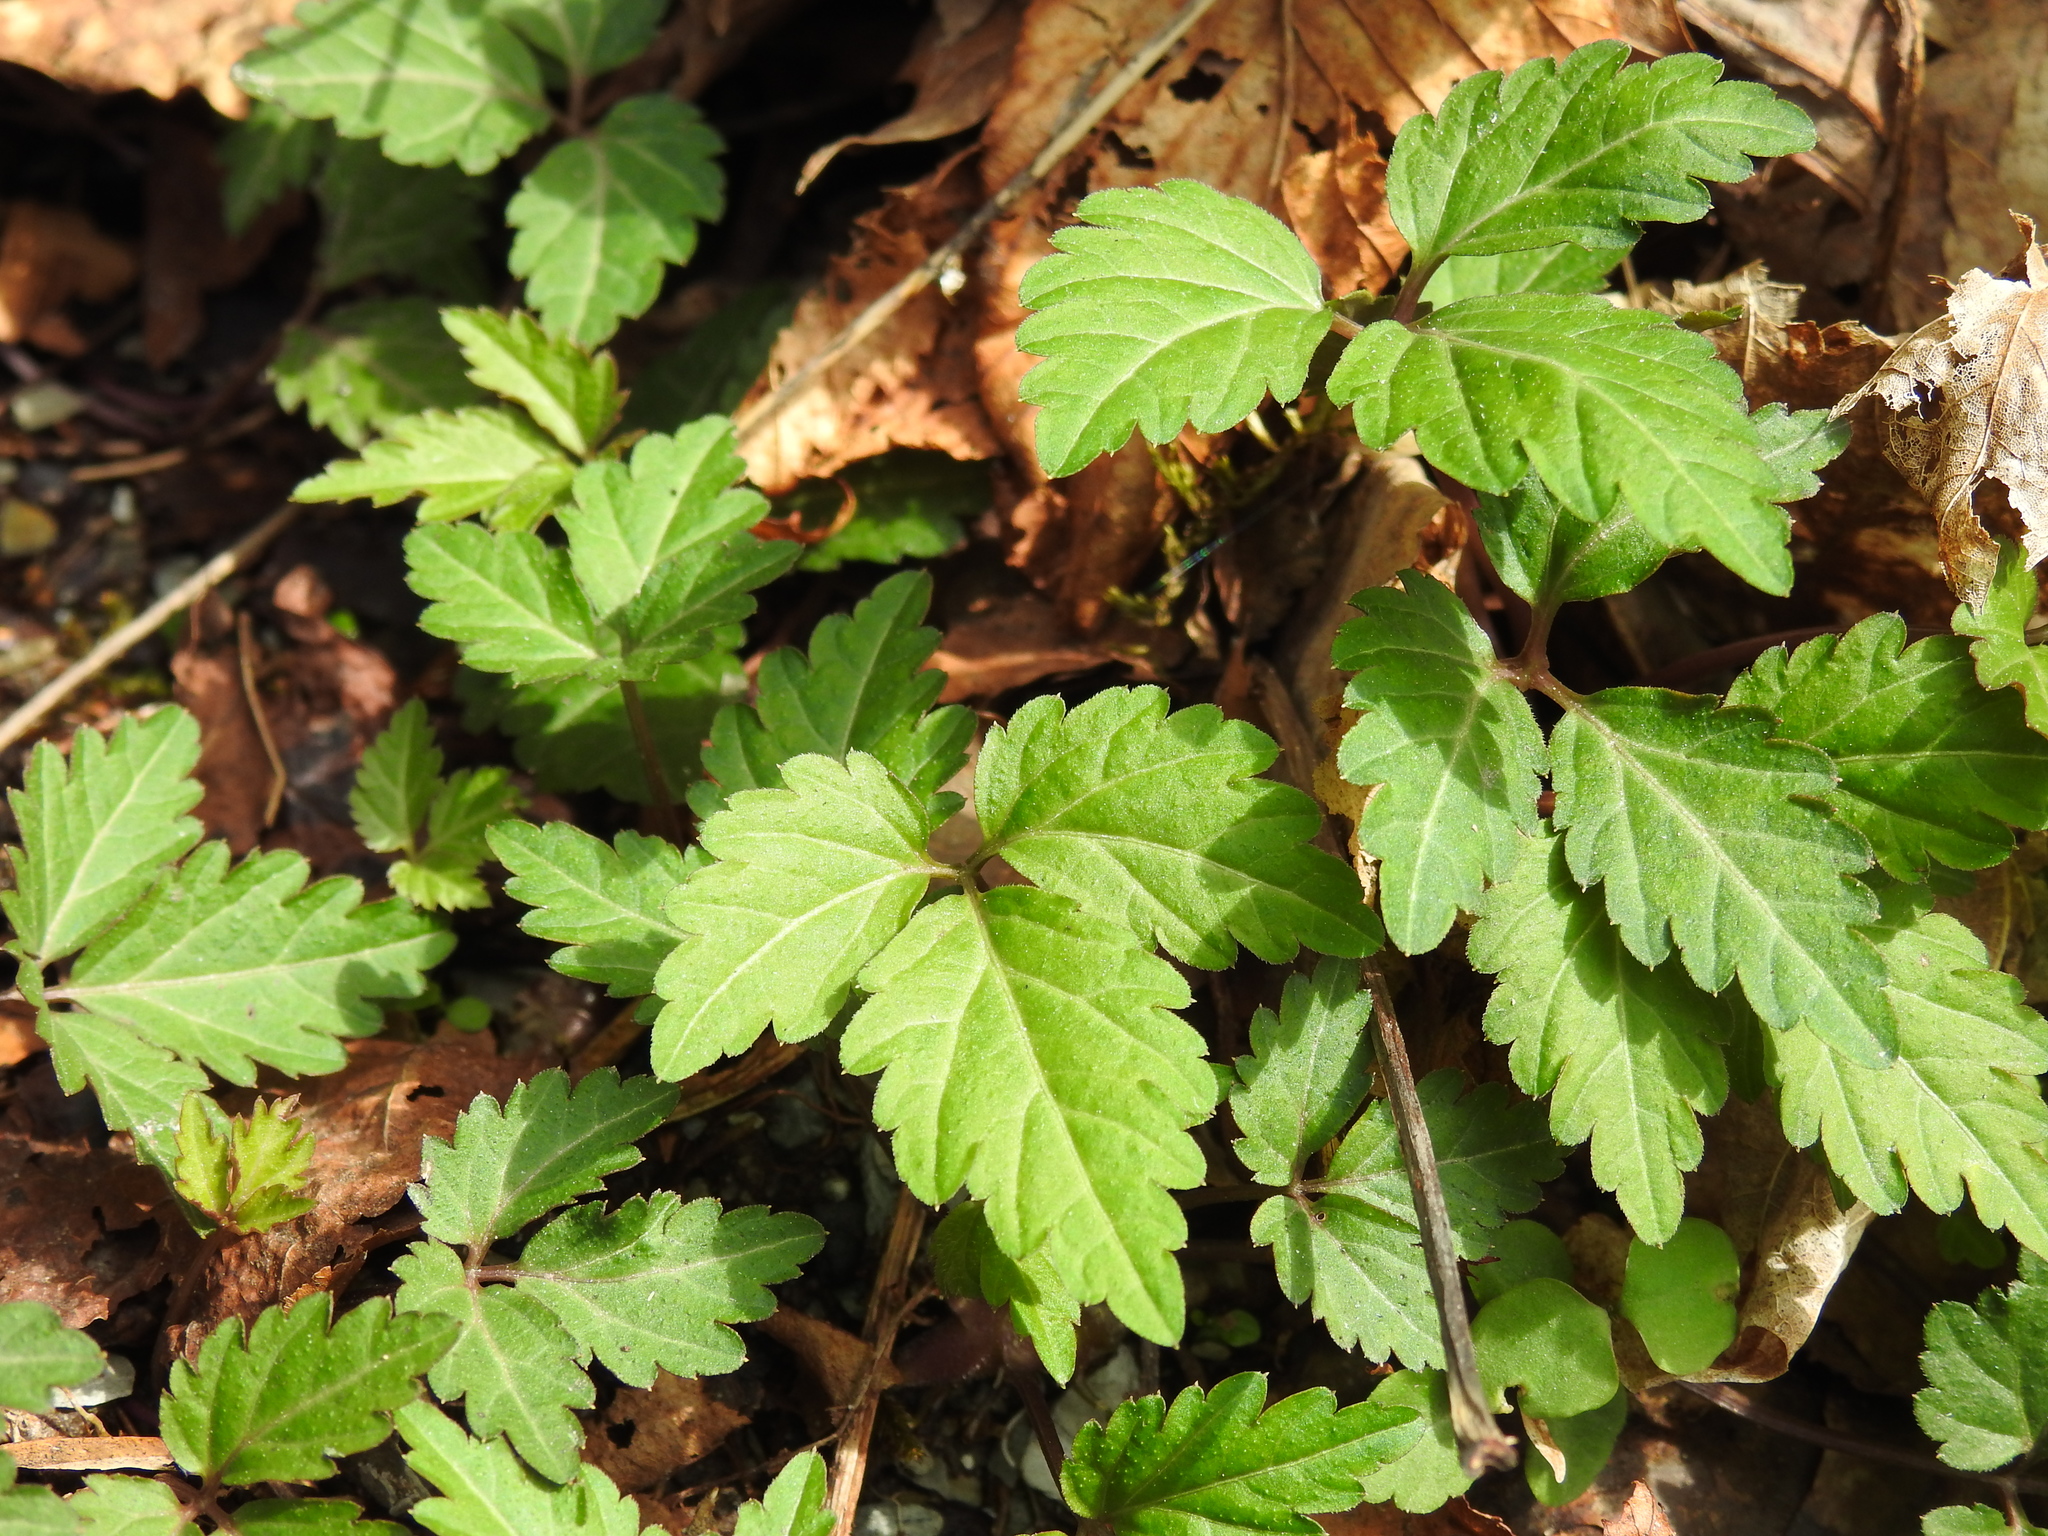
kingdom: Plantae
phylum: Tracheophyta
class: Magnoliopsida
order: Brassicales
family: Brassicaceae
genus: Cardamine
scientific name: Cardamine diphylla
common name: Broad-leaved toothwort
